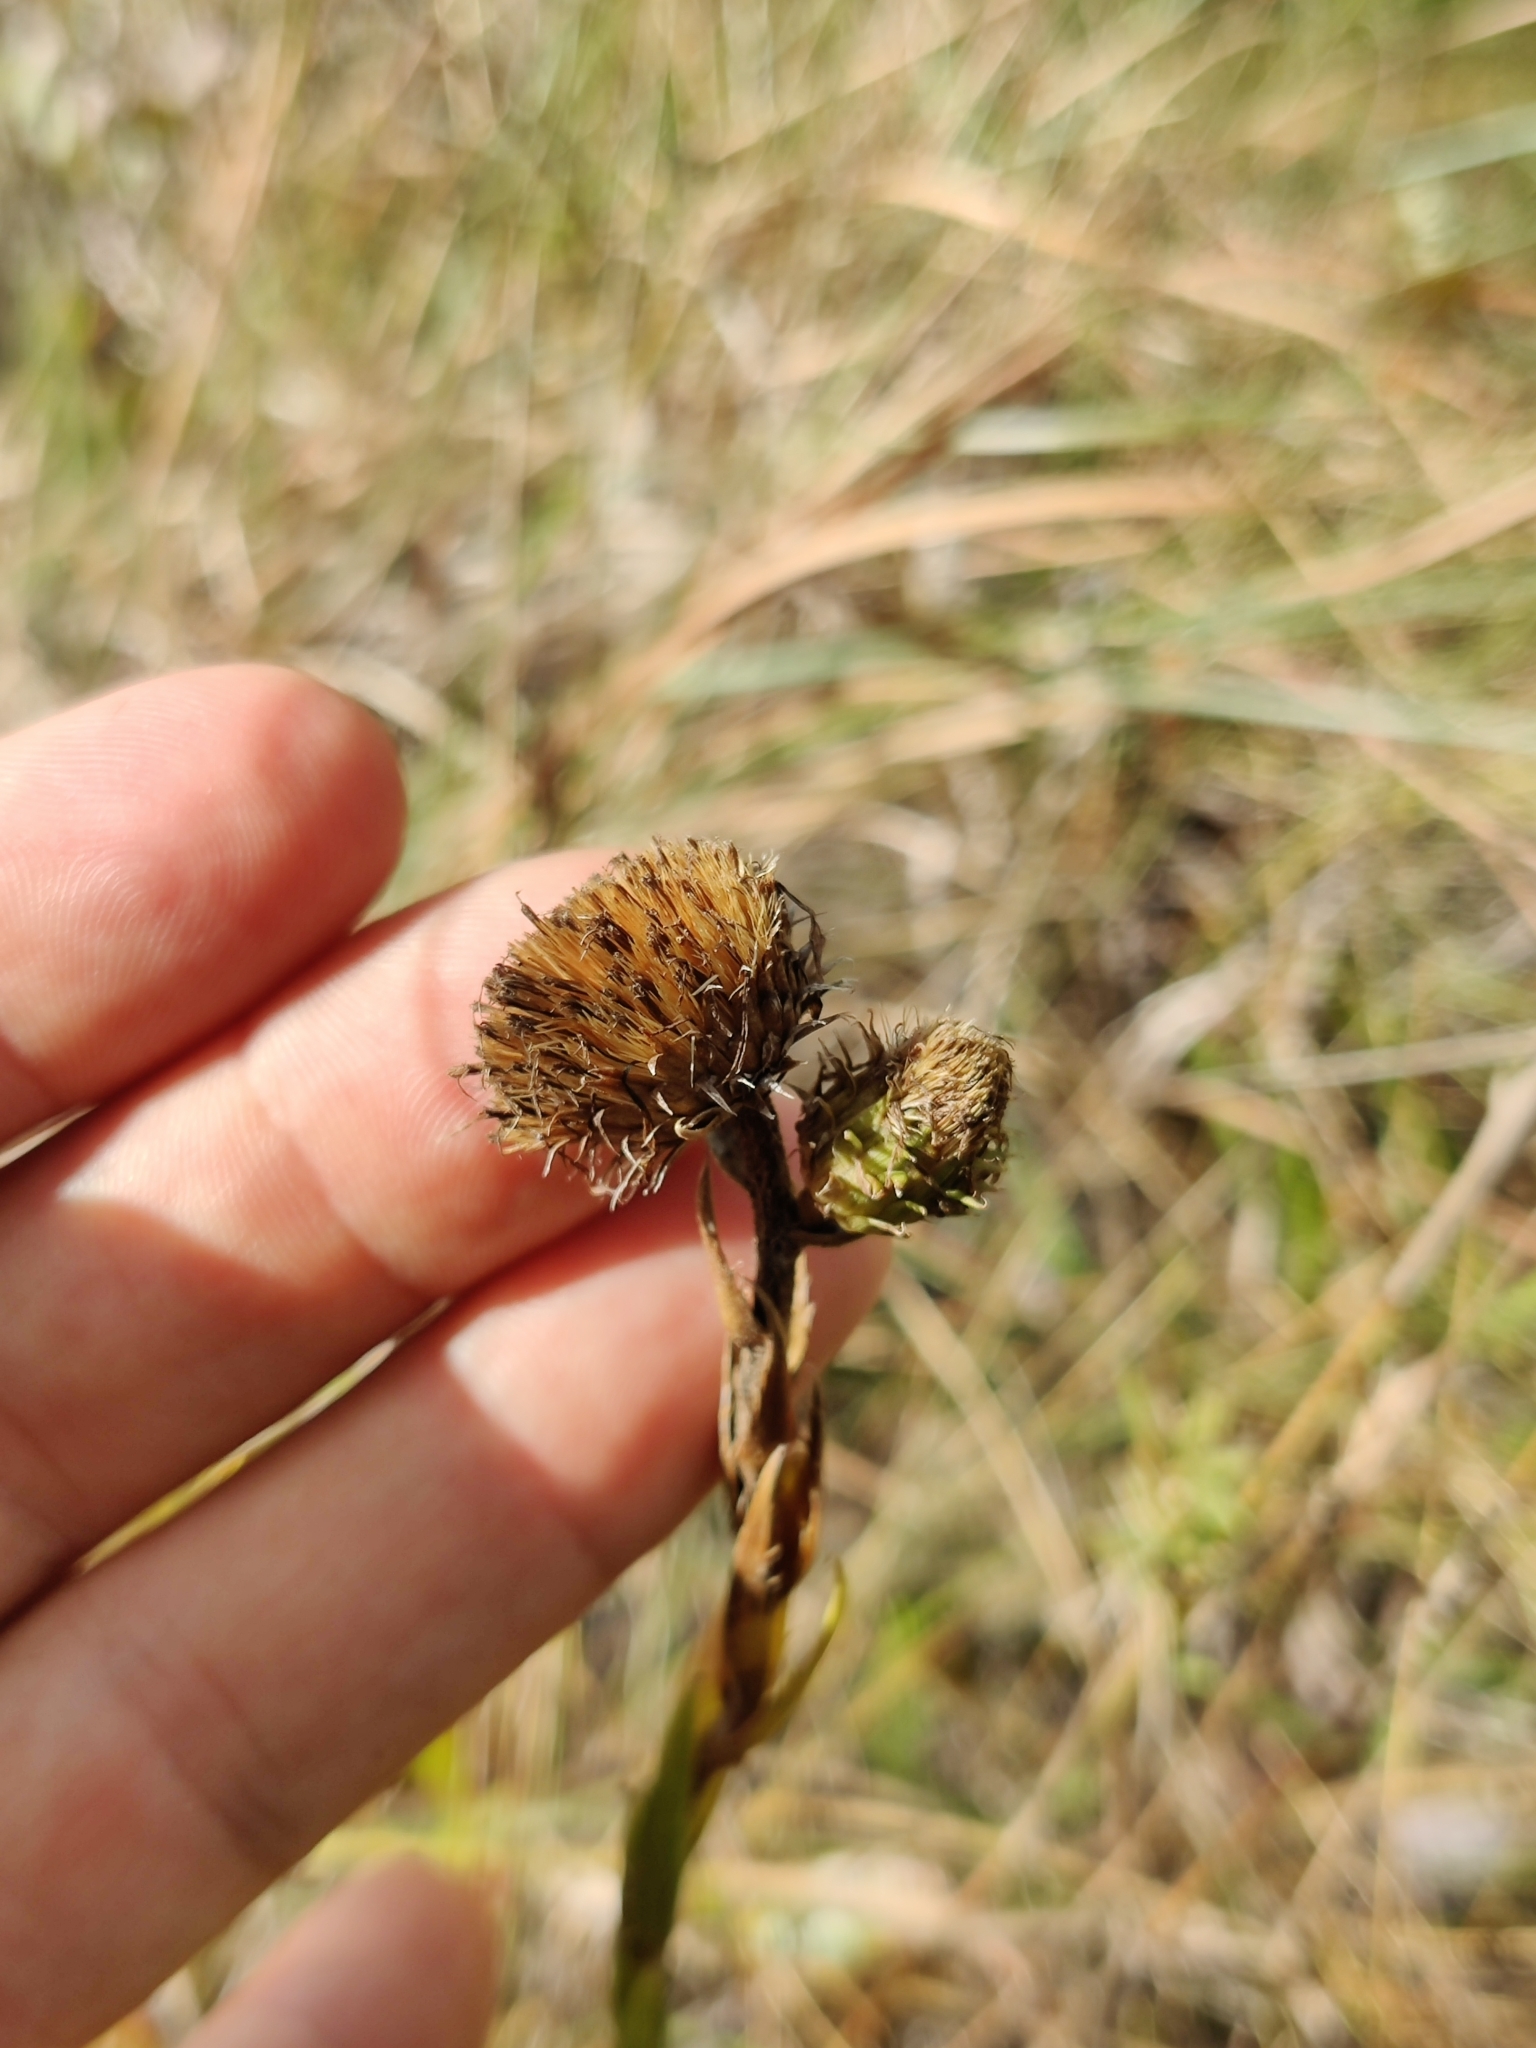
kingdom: Plantae
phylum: Tracheophyta
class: Magnoliopsida
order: Asterales
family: Asteraceae
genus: Eurybia
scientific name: Eurybia eryngiifolia
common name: Thistle-leaf aster
